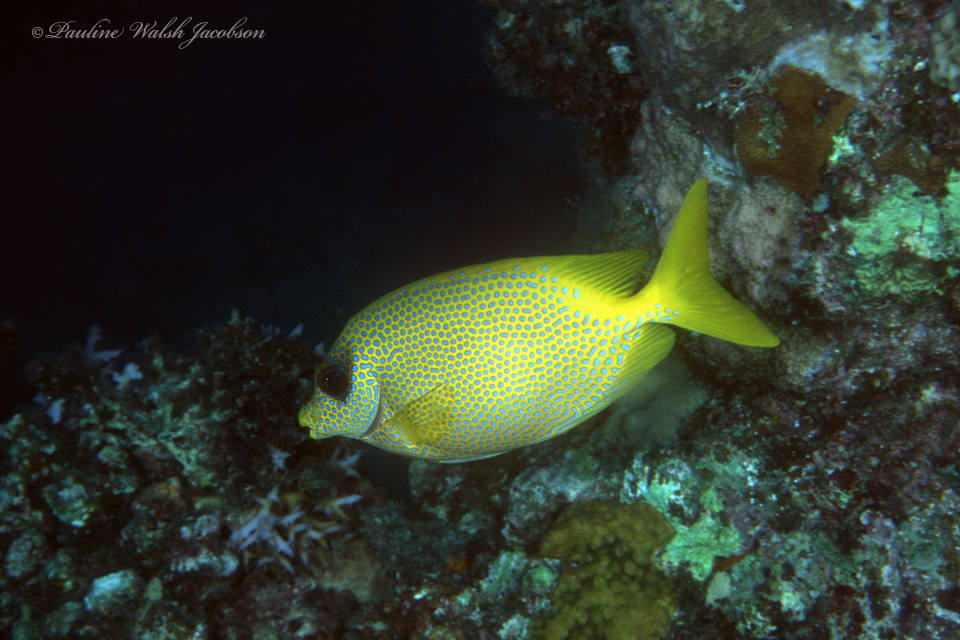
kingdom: Animalia
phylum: Chordata
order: Perciformes
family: Siganidae
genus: Siganus
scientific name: Siganus corallinus
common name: Coral rabbitfish
